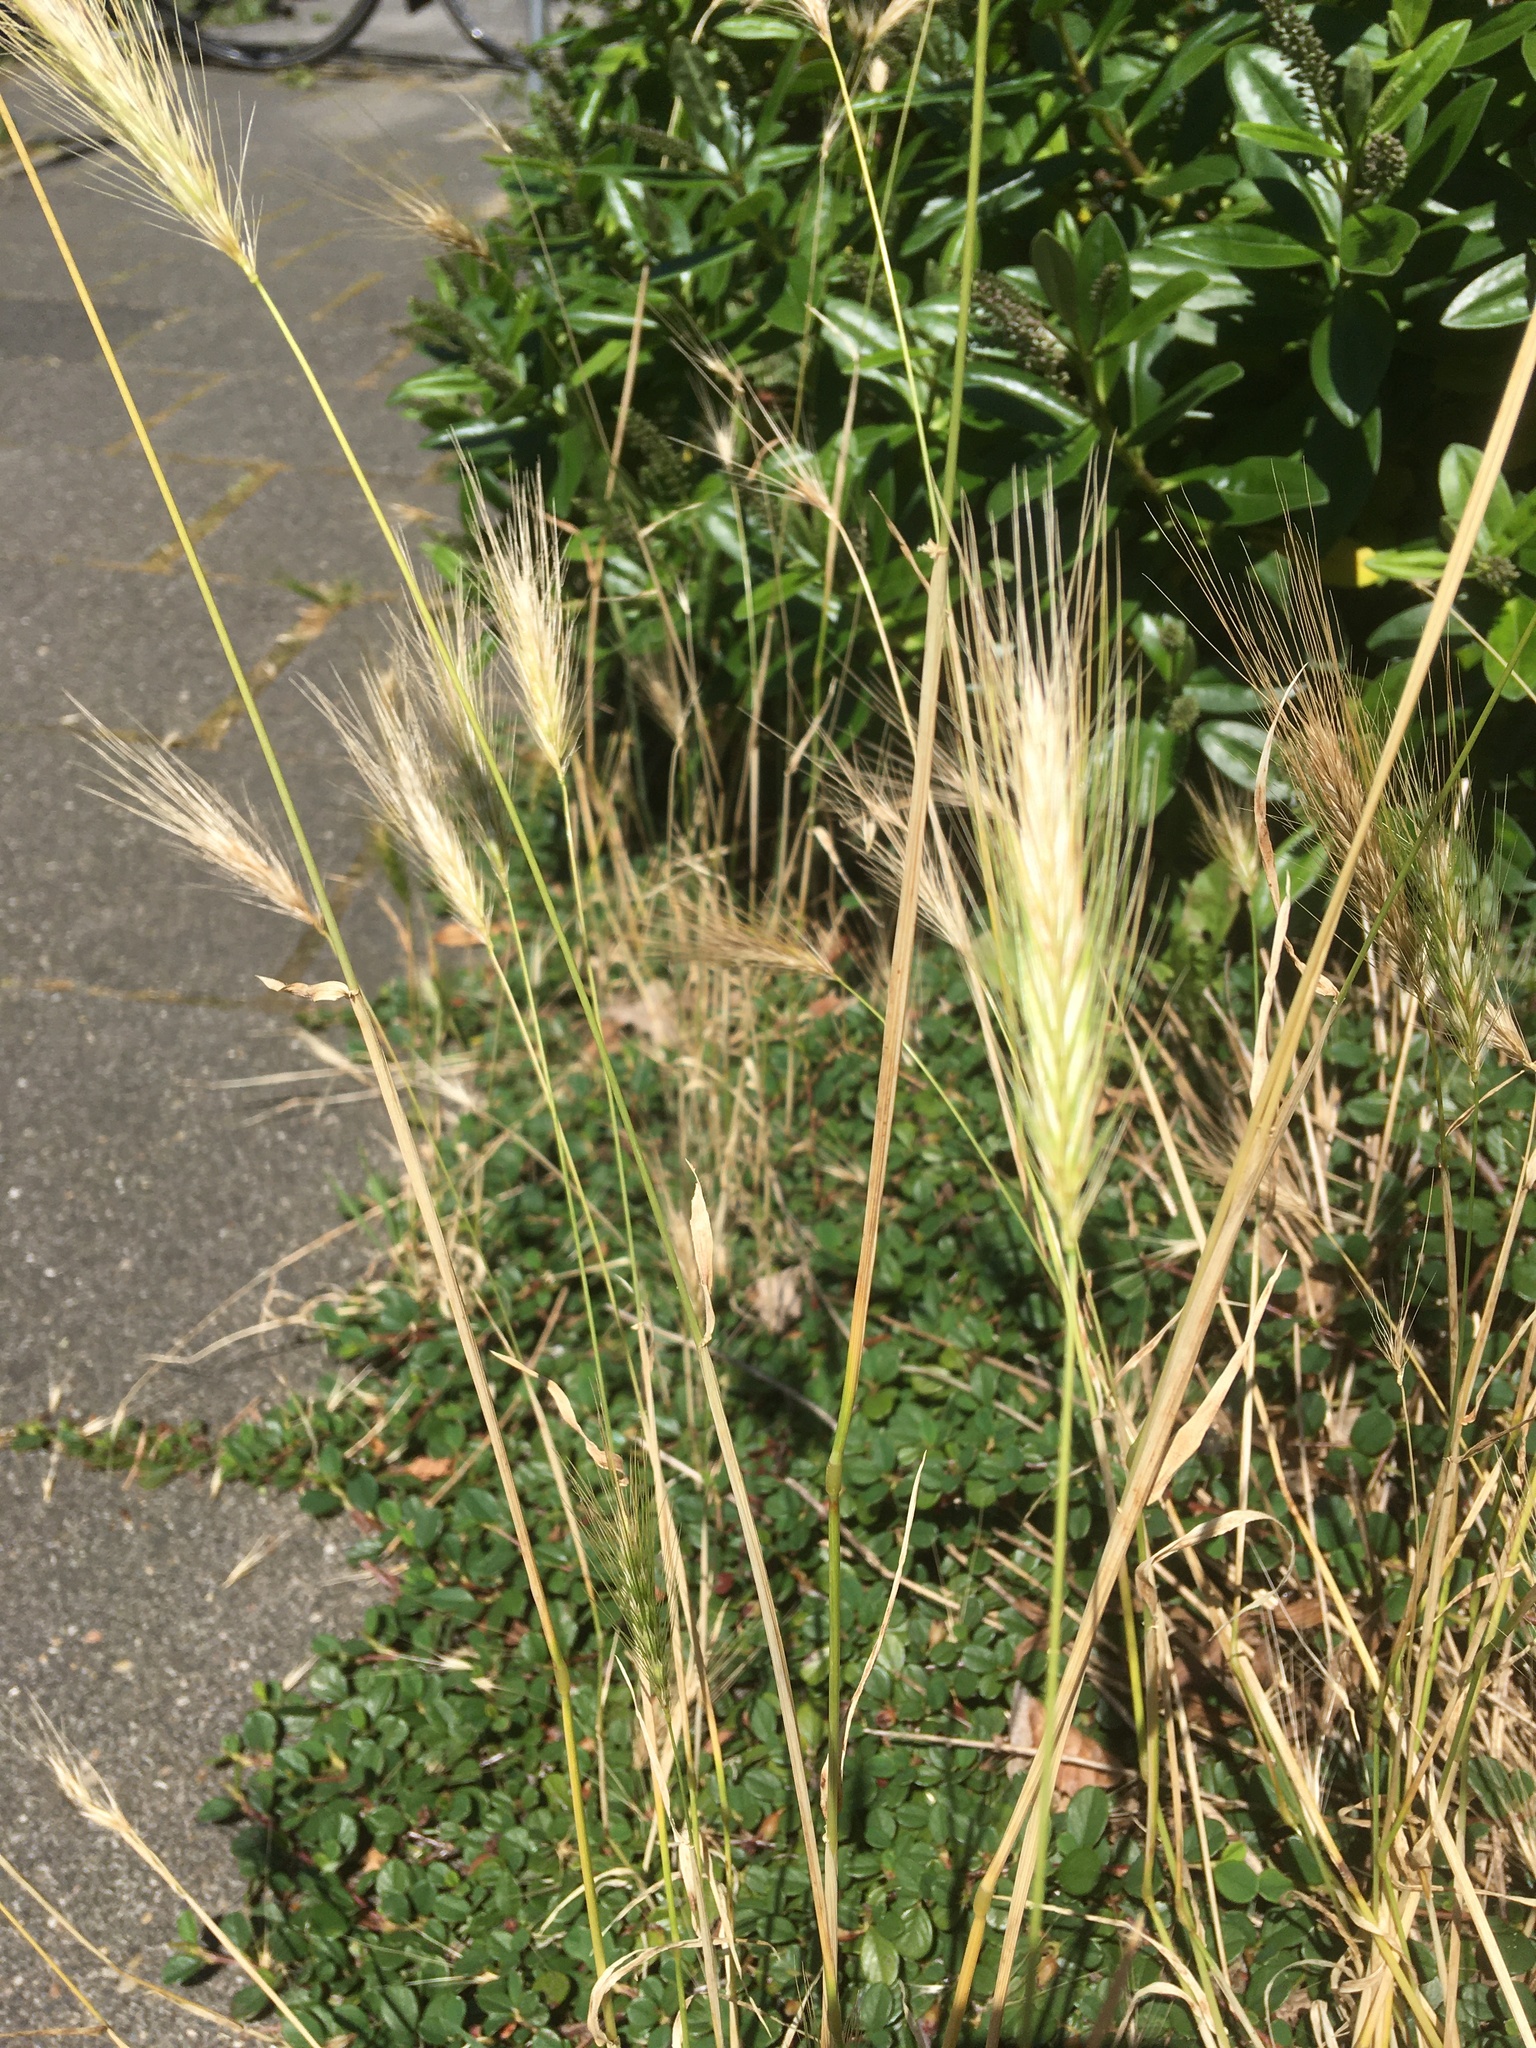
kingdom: Plantae
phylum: Tracheophyta
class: Liliopsida
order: Poales
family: Poaceae
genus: Hordeum
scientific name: Hordeum murinum
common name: Wall barley
